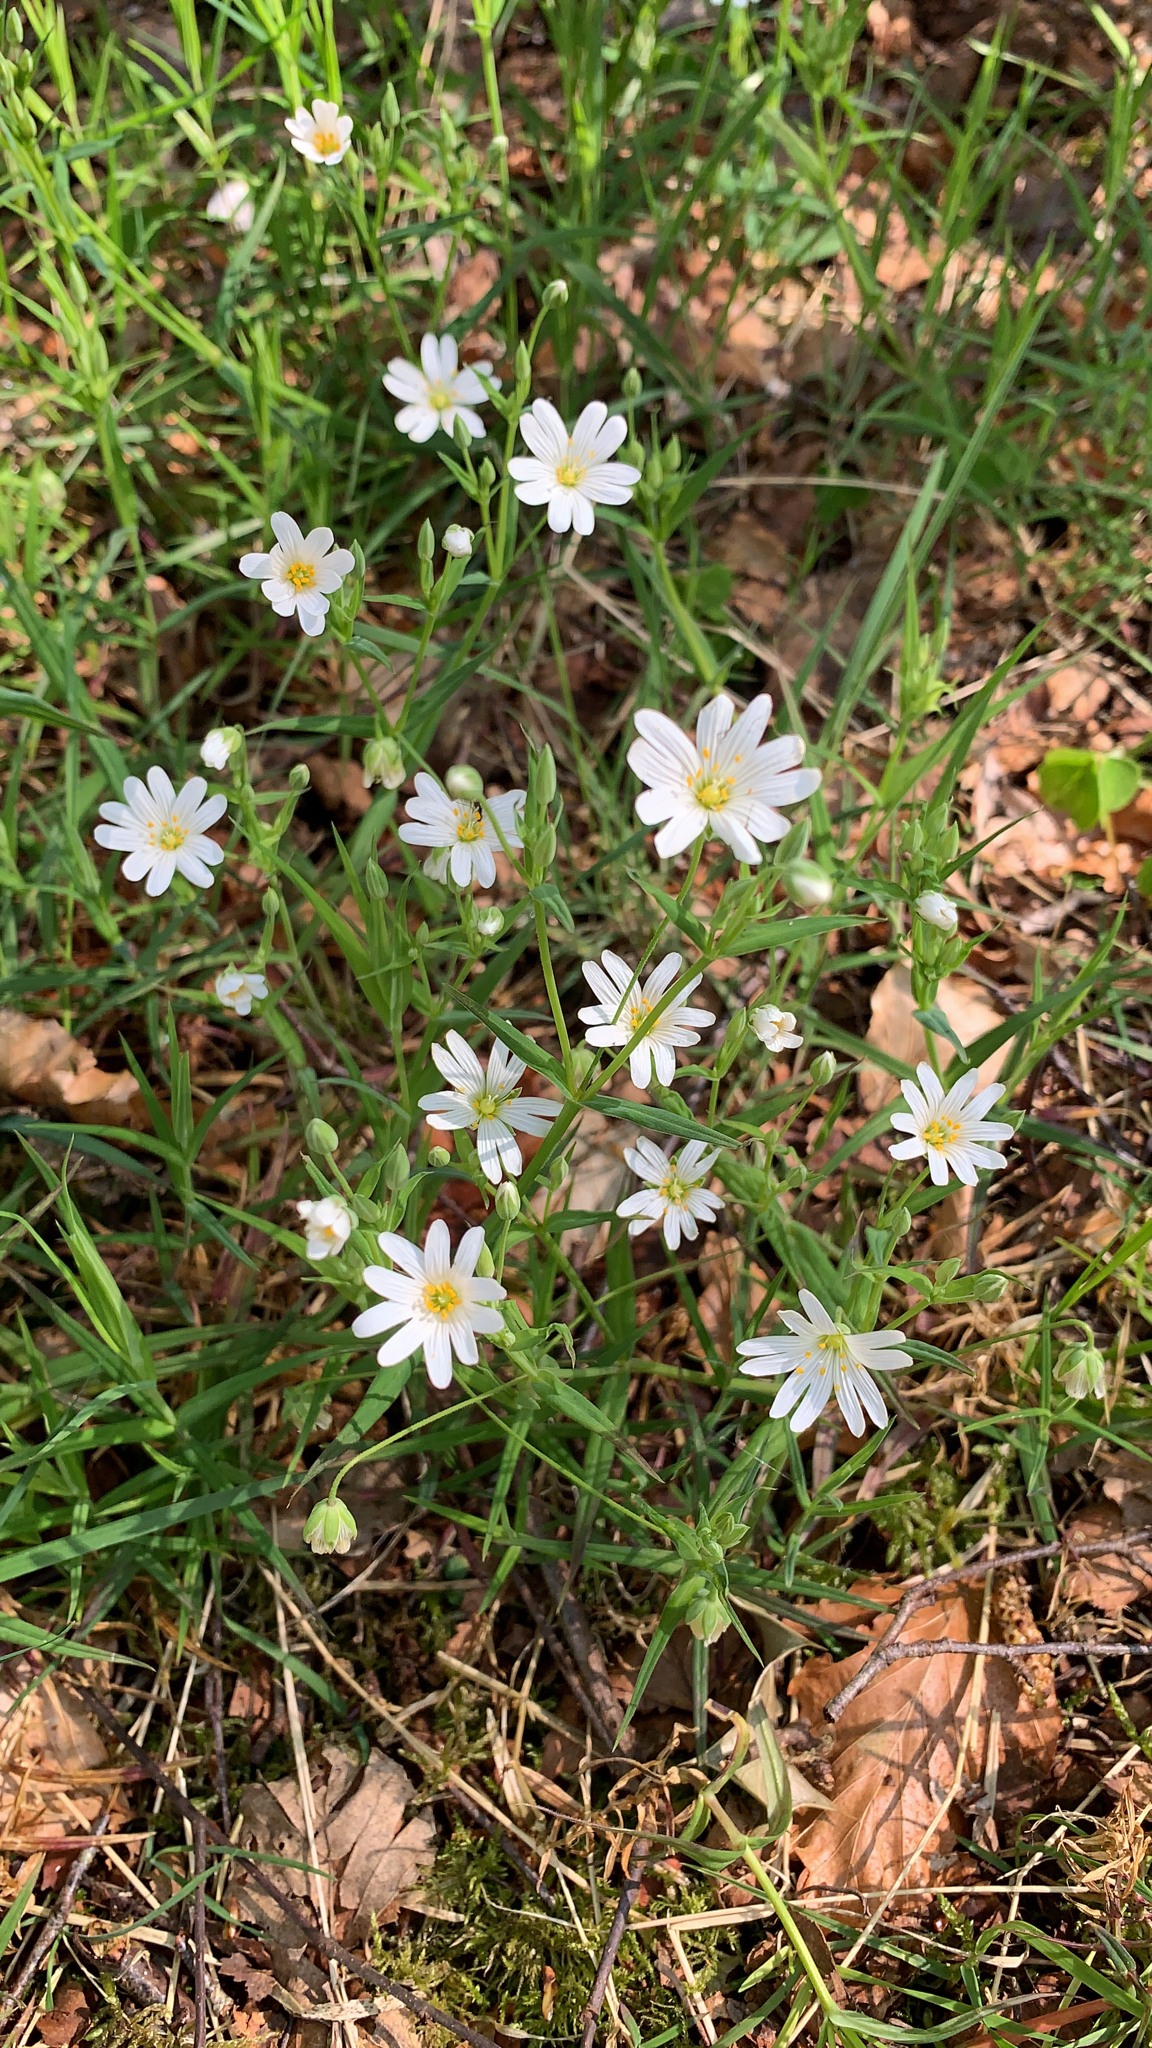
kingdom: Plantae
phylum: Tracheophyta
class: Magnoliopsida
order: Caryophyllales
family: Caryophyllaceae
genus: Rabelera
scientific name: Rabelera holostea
